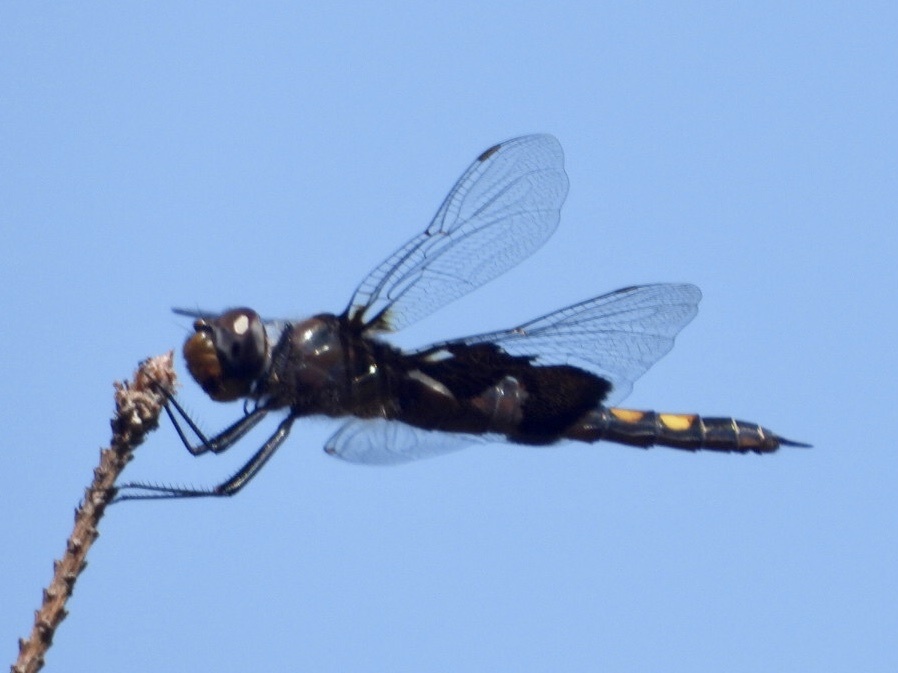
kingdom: Animalia
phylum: Arthropoda
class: Insecta
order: Odonata
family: Libellulidae
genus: Tramea
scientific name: Tramea lacerata
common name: Black saddlebags
